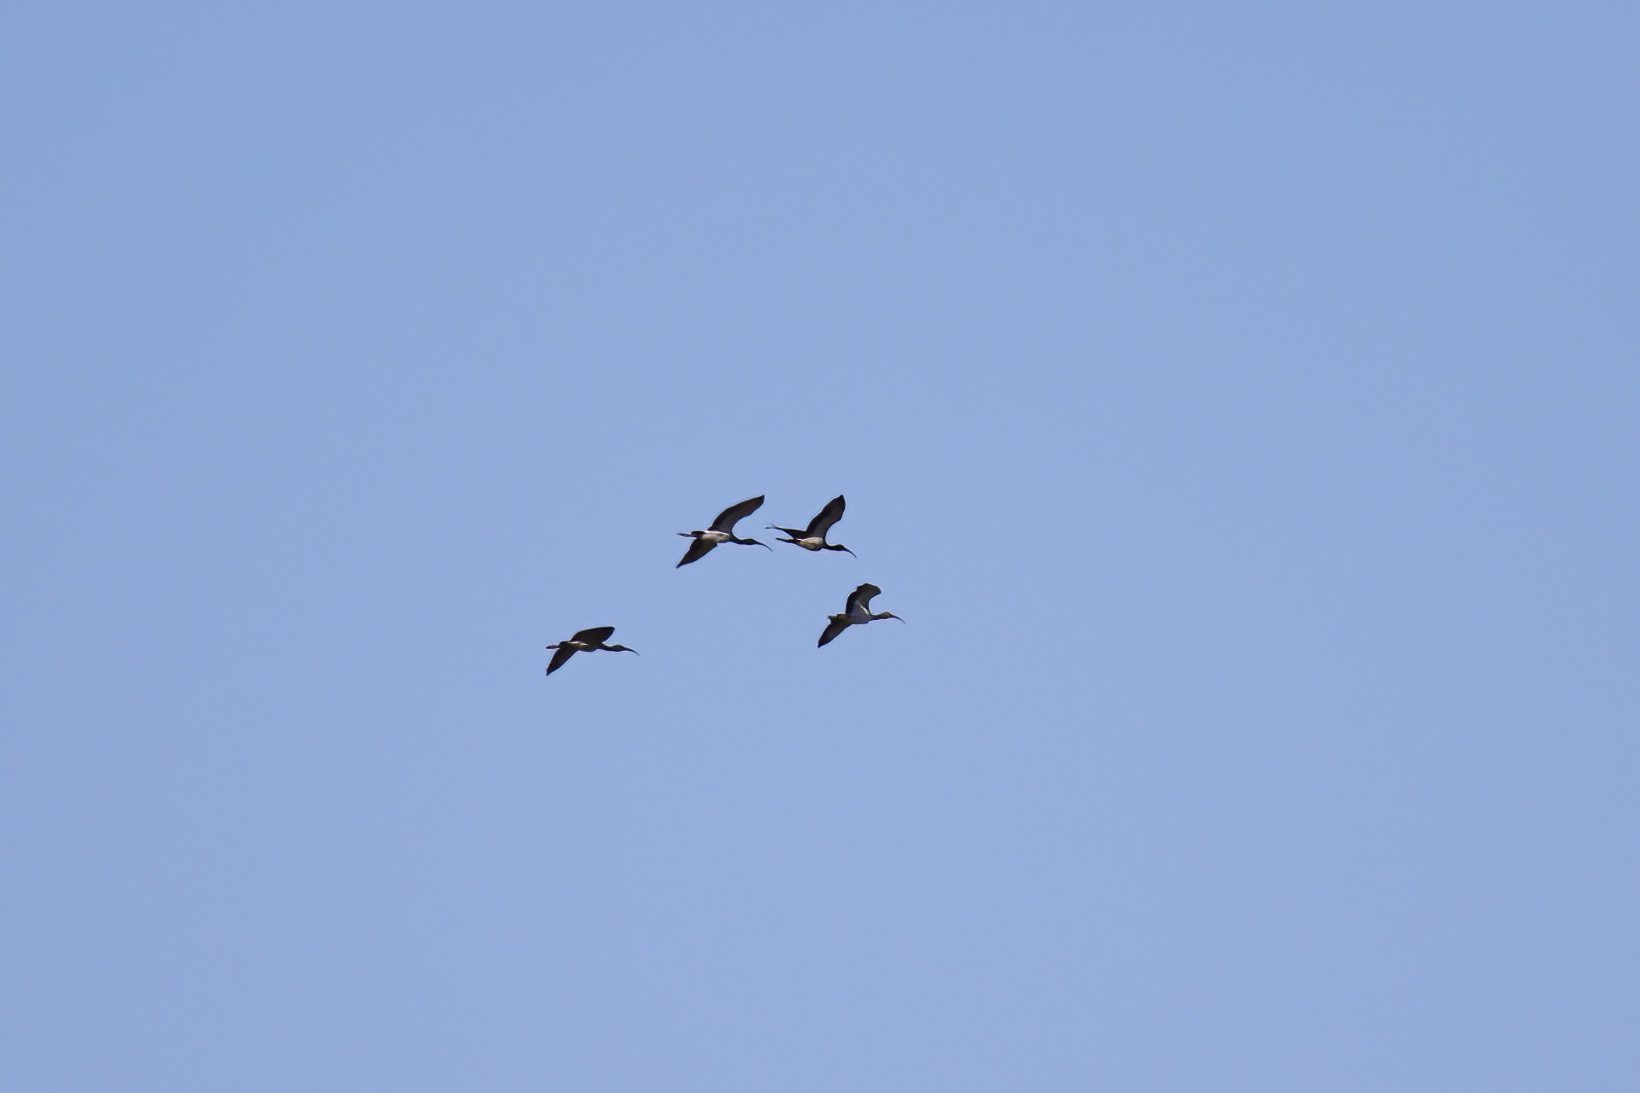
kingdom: Animalia
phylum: Chordata
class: Aves
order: Pelecaniformes
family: Threskiornithidae
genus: Eudocimus
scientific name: Eudocimus albus
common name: White ibis
